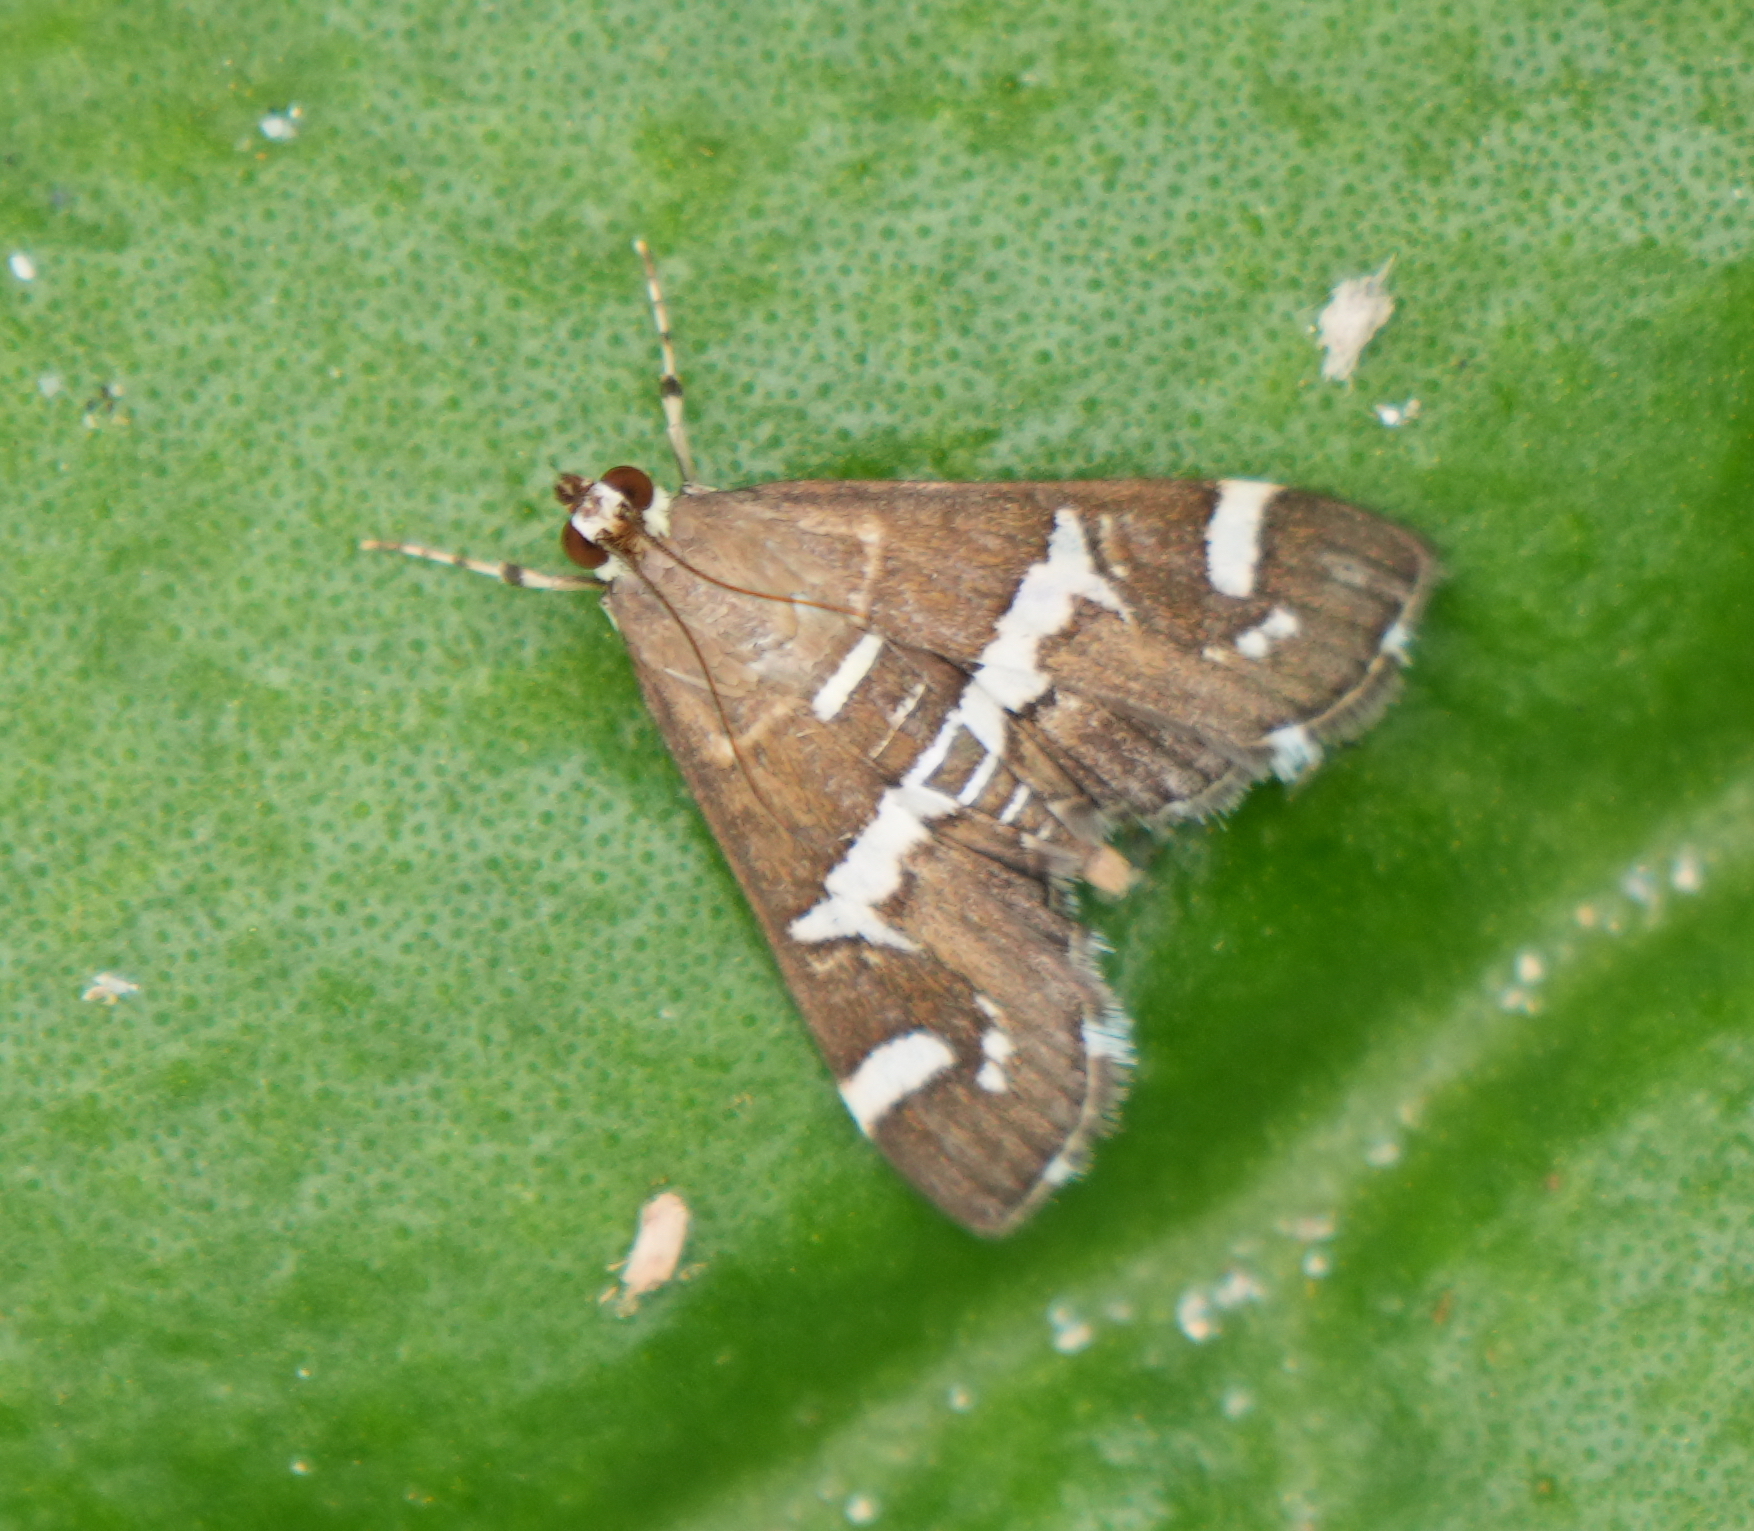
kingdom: Animalia
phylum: Arthropoda
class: Insecta
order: Lepidoptera
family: Crambidae
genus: Spoladea
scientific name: Spoladea recurvalis
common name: Beet webworm moth
